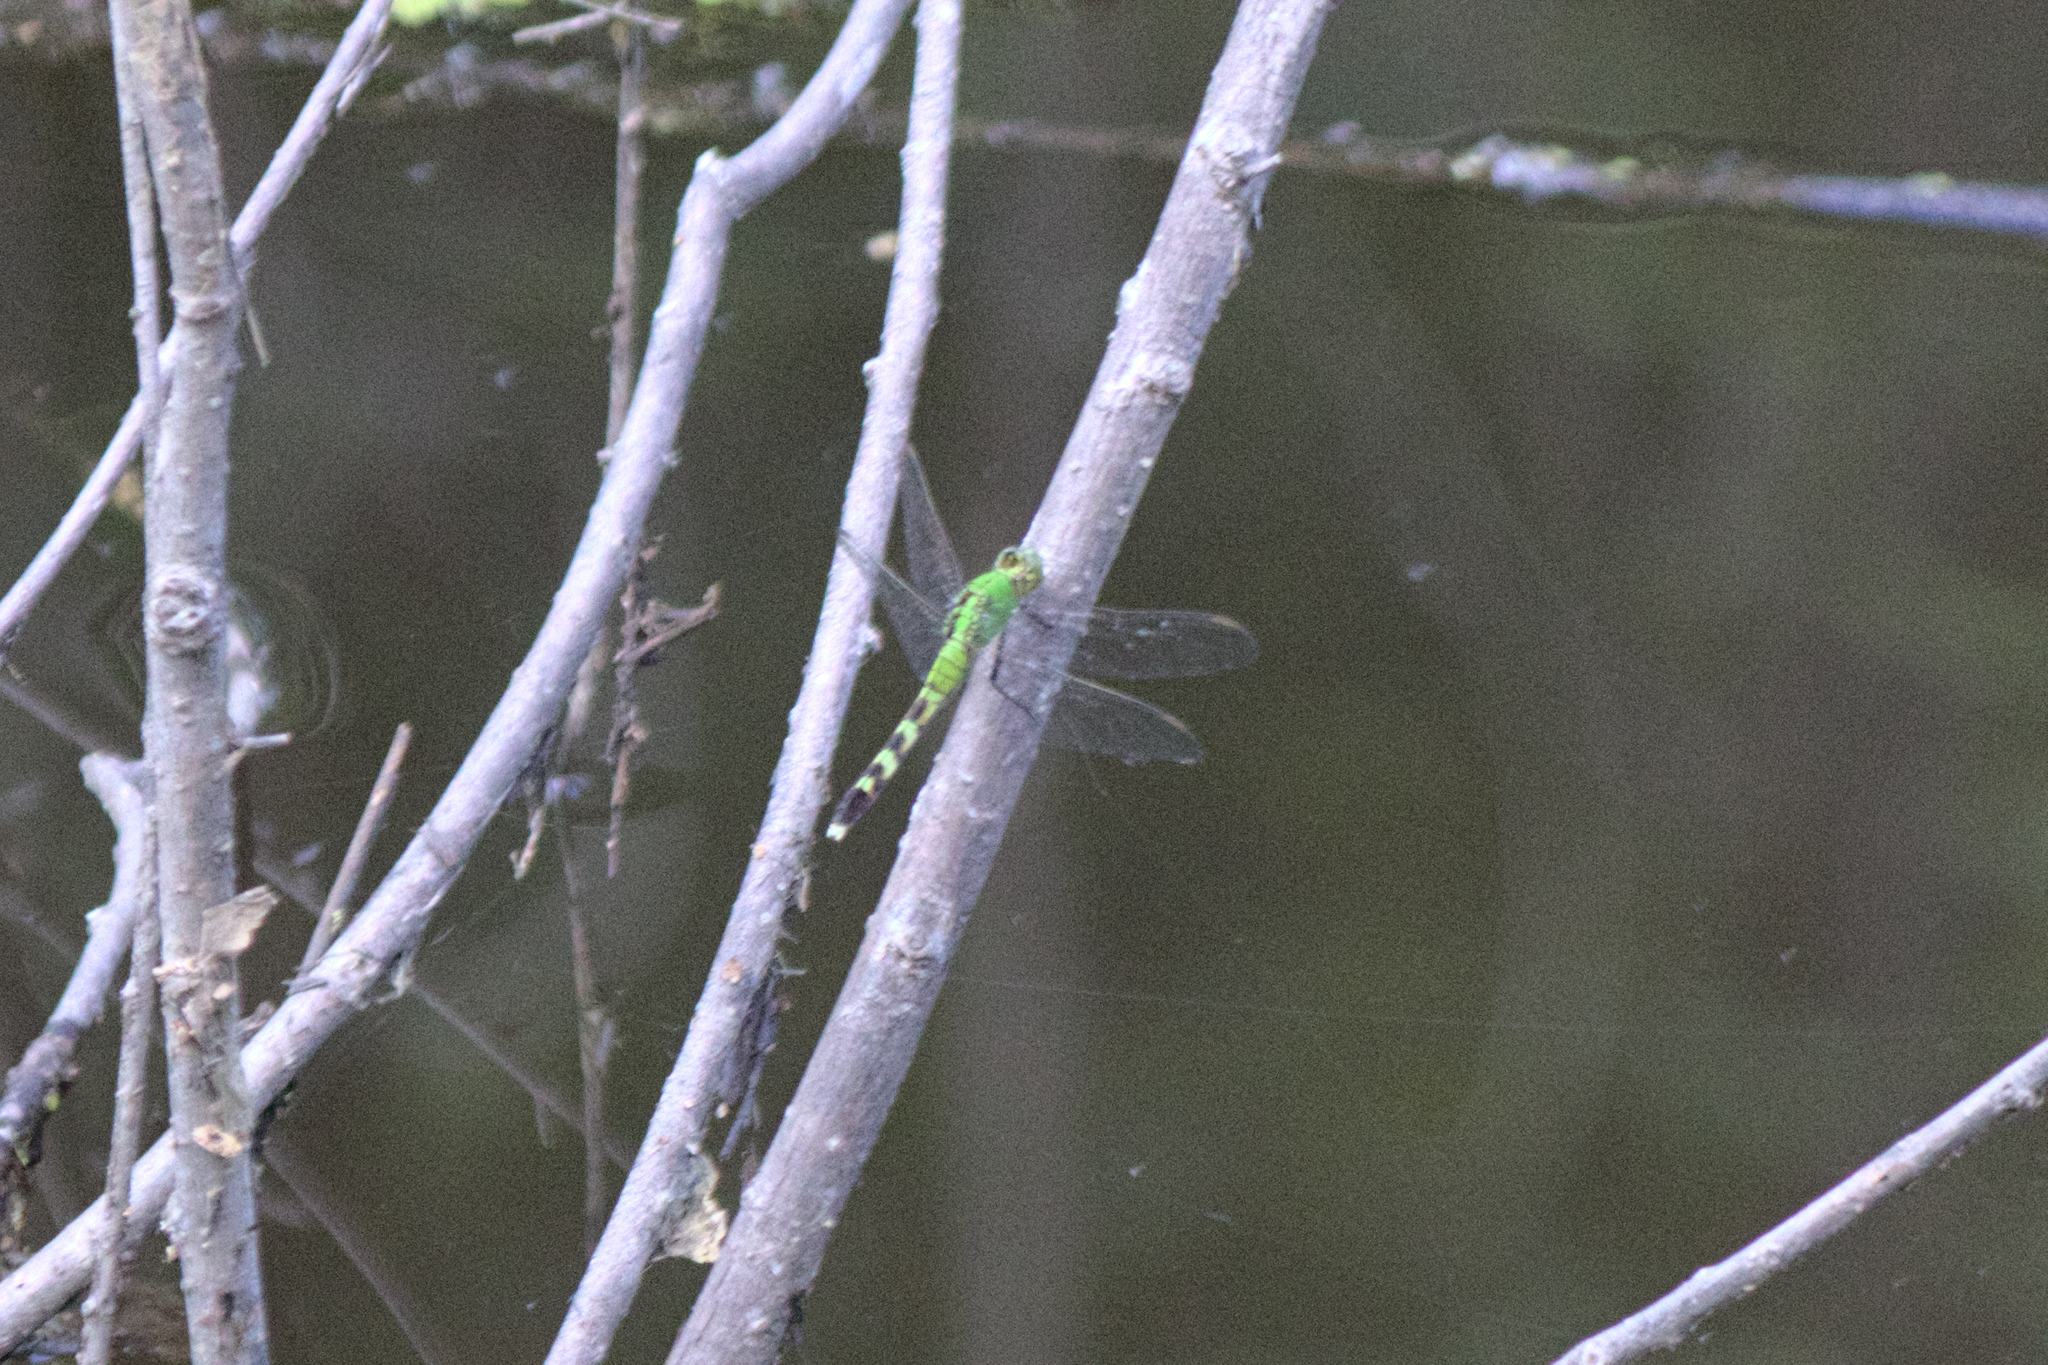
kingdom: Animalia
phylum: Arthropoda
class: Insecta
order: Odonata
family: Libellulidae
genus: Erythemis
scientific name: Erythemis simplicicollis
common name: Eastern pondhawk
